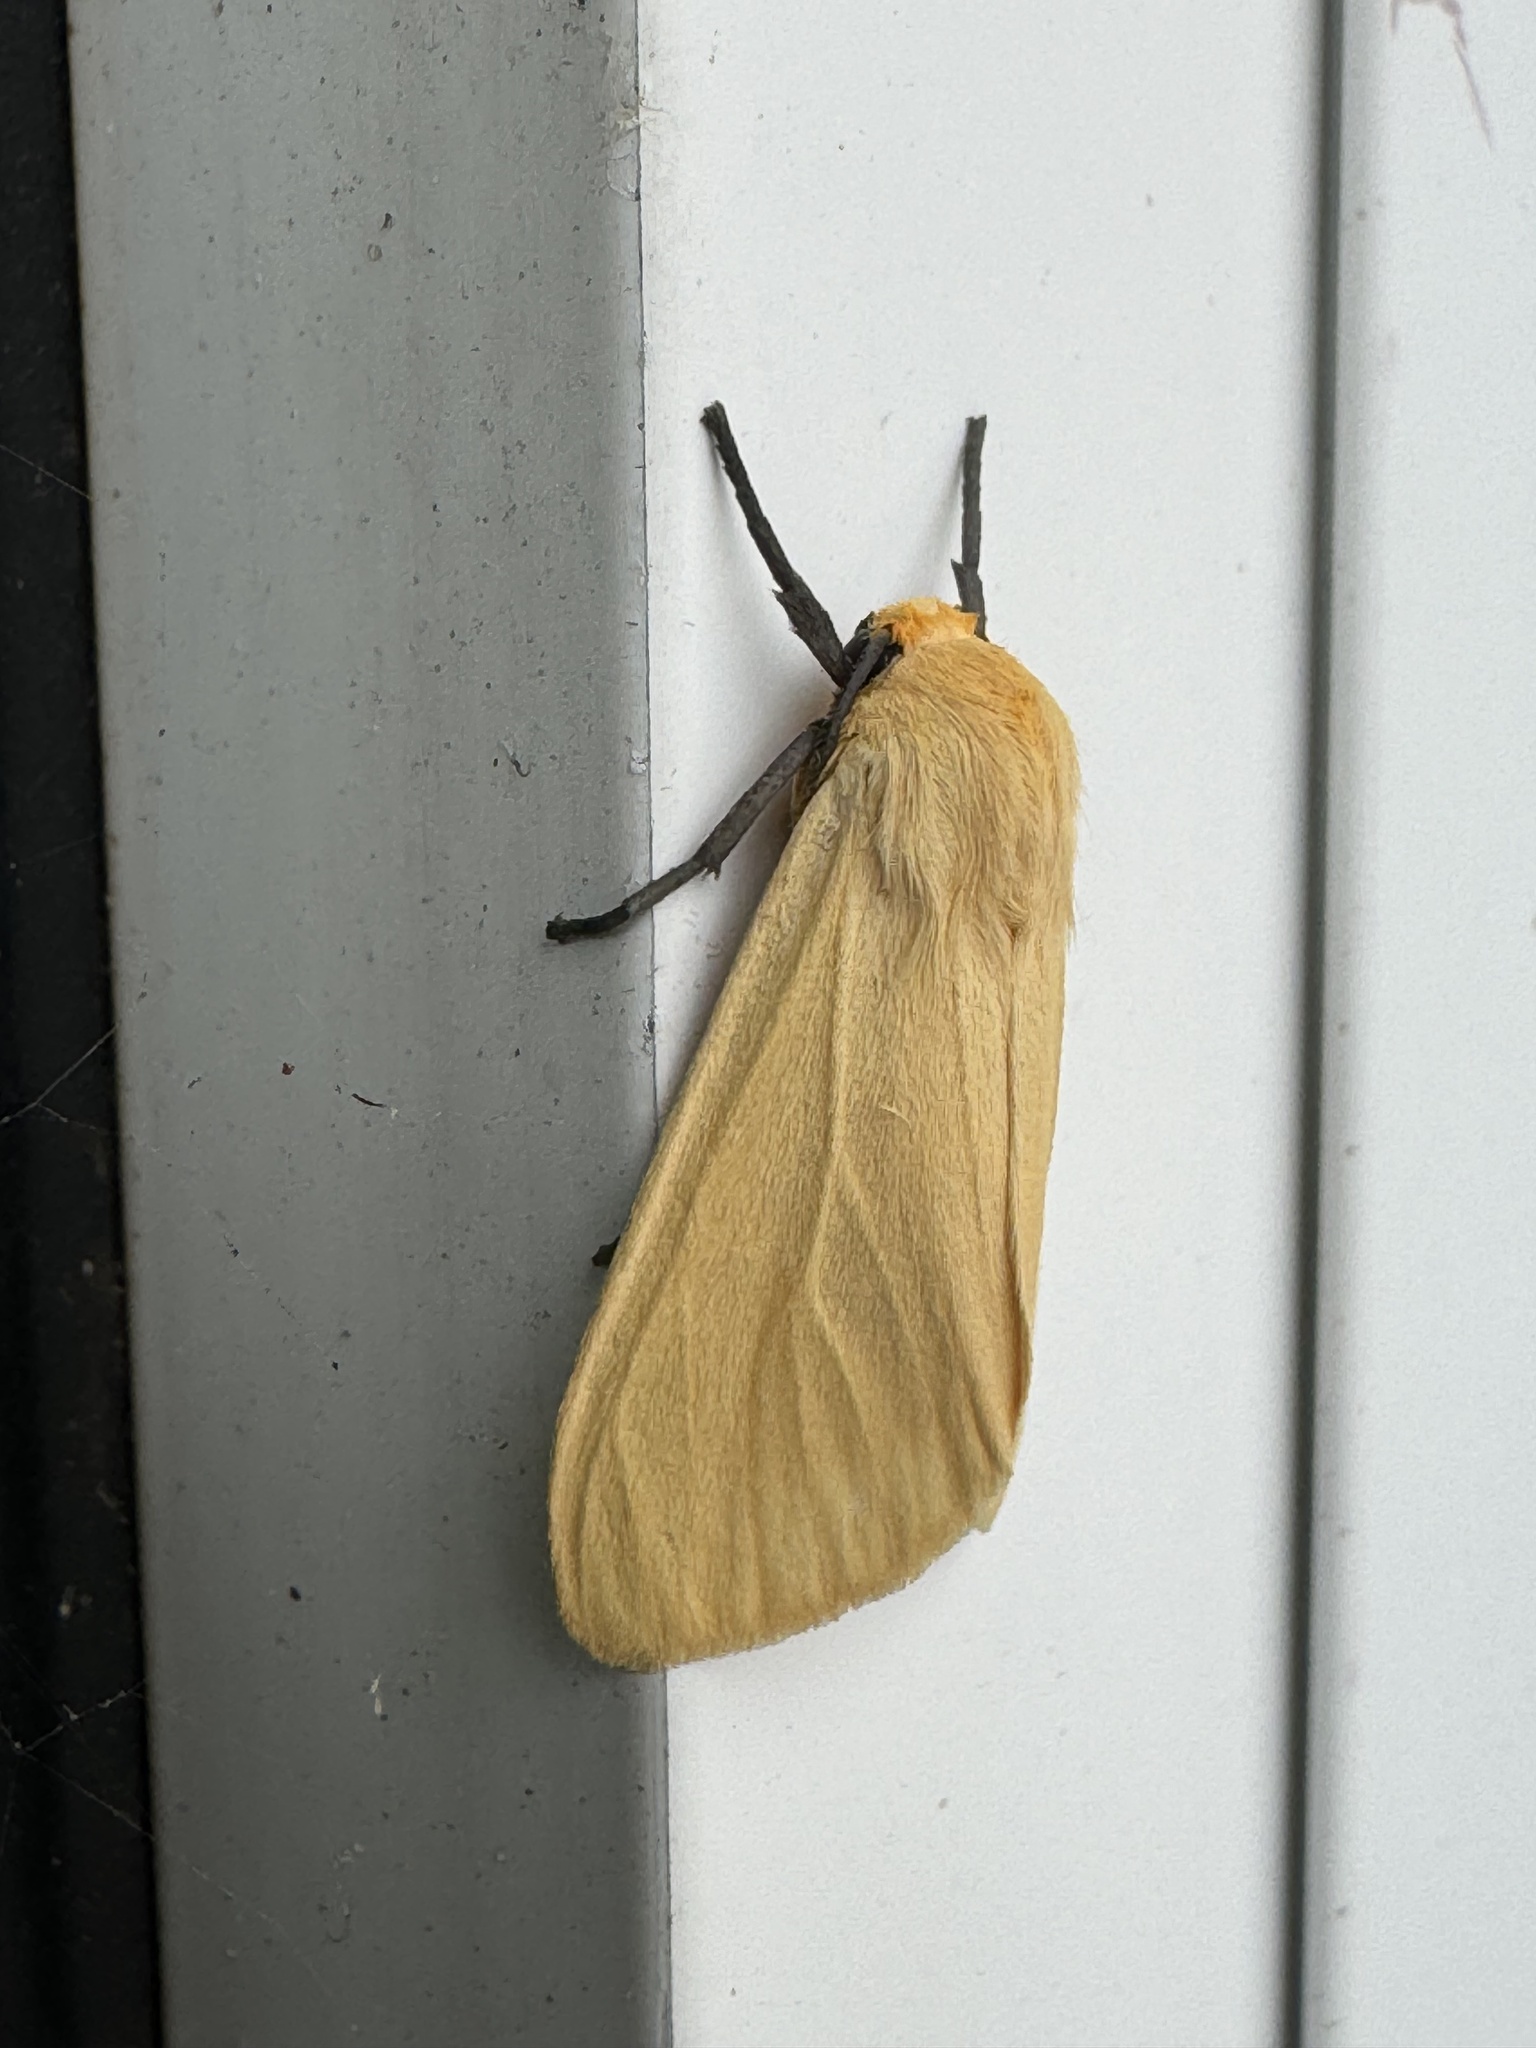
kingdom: Animalia
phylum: Arthropoda
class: Insecta
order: Lepidoptera
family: Erebidae
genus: Pareuchaetes
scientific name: Pareuchaetes insulata
